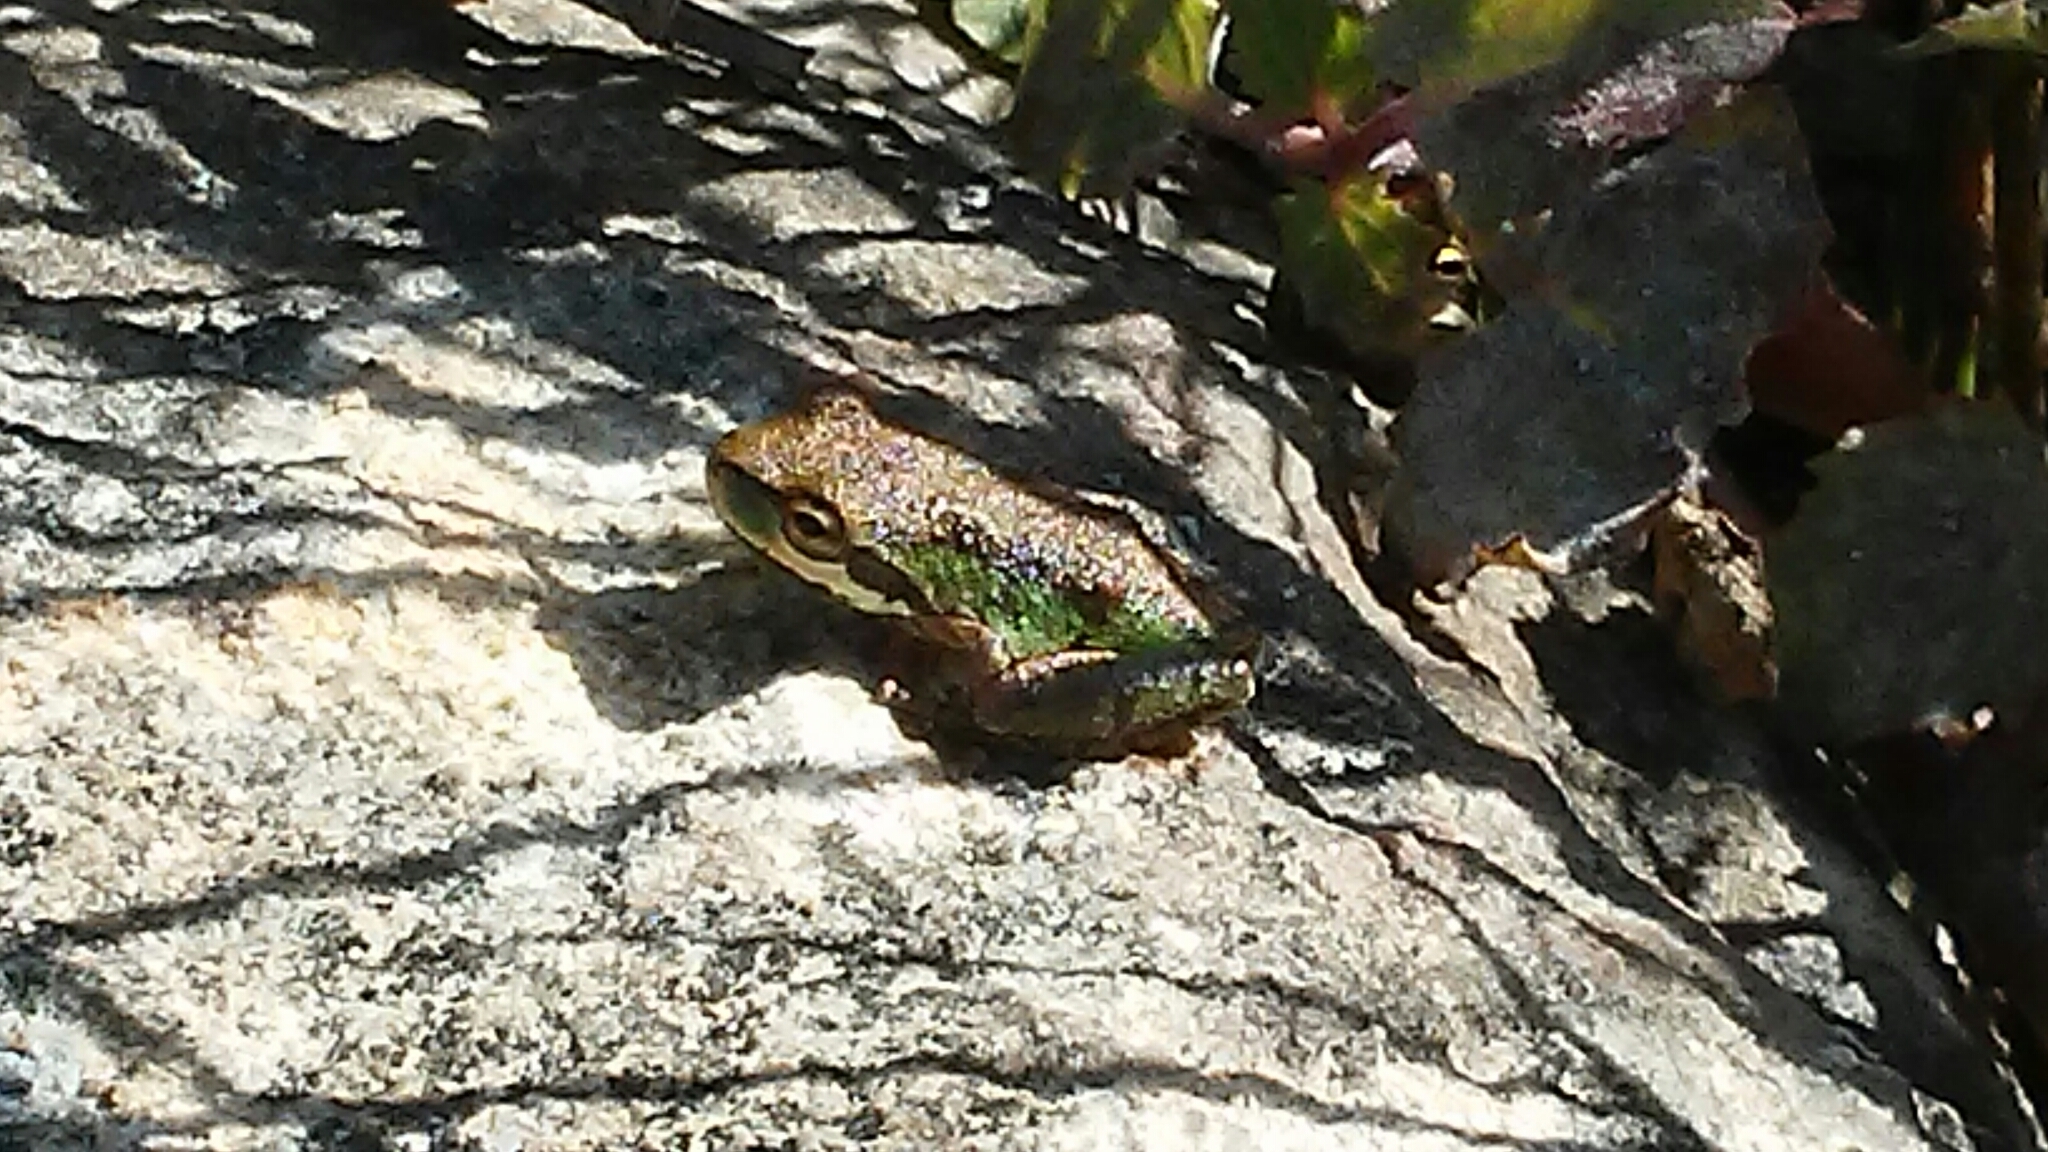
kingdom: Animalia
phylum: Chordata
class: Amphibia
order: Anura
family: Hylidae
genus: Pseudacris
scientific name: Pseudacris regilla
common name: Pacific chorus frog
